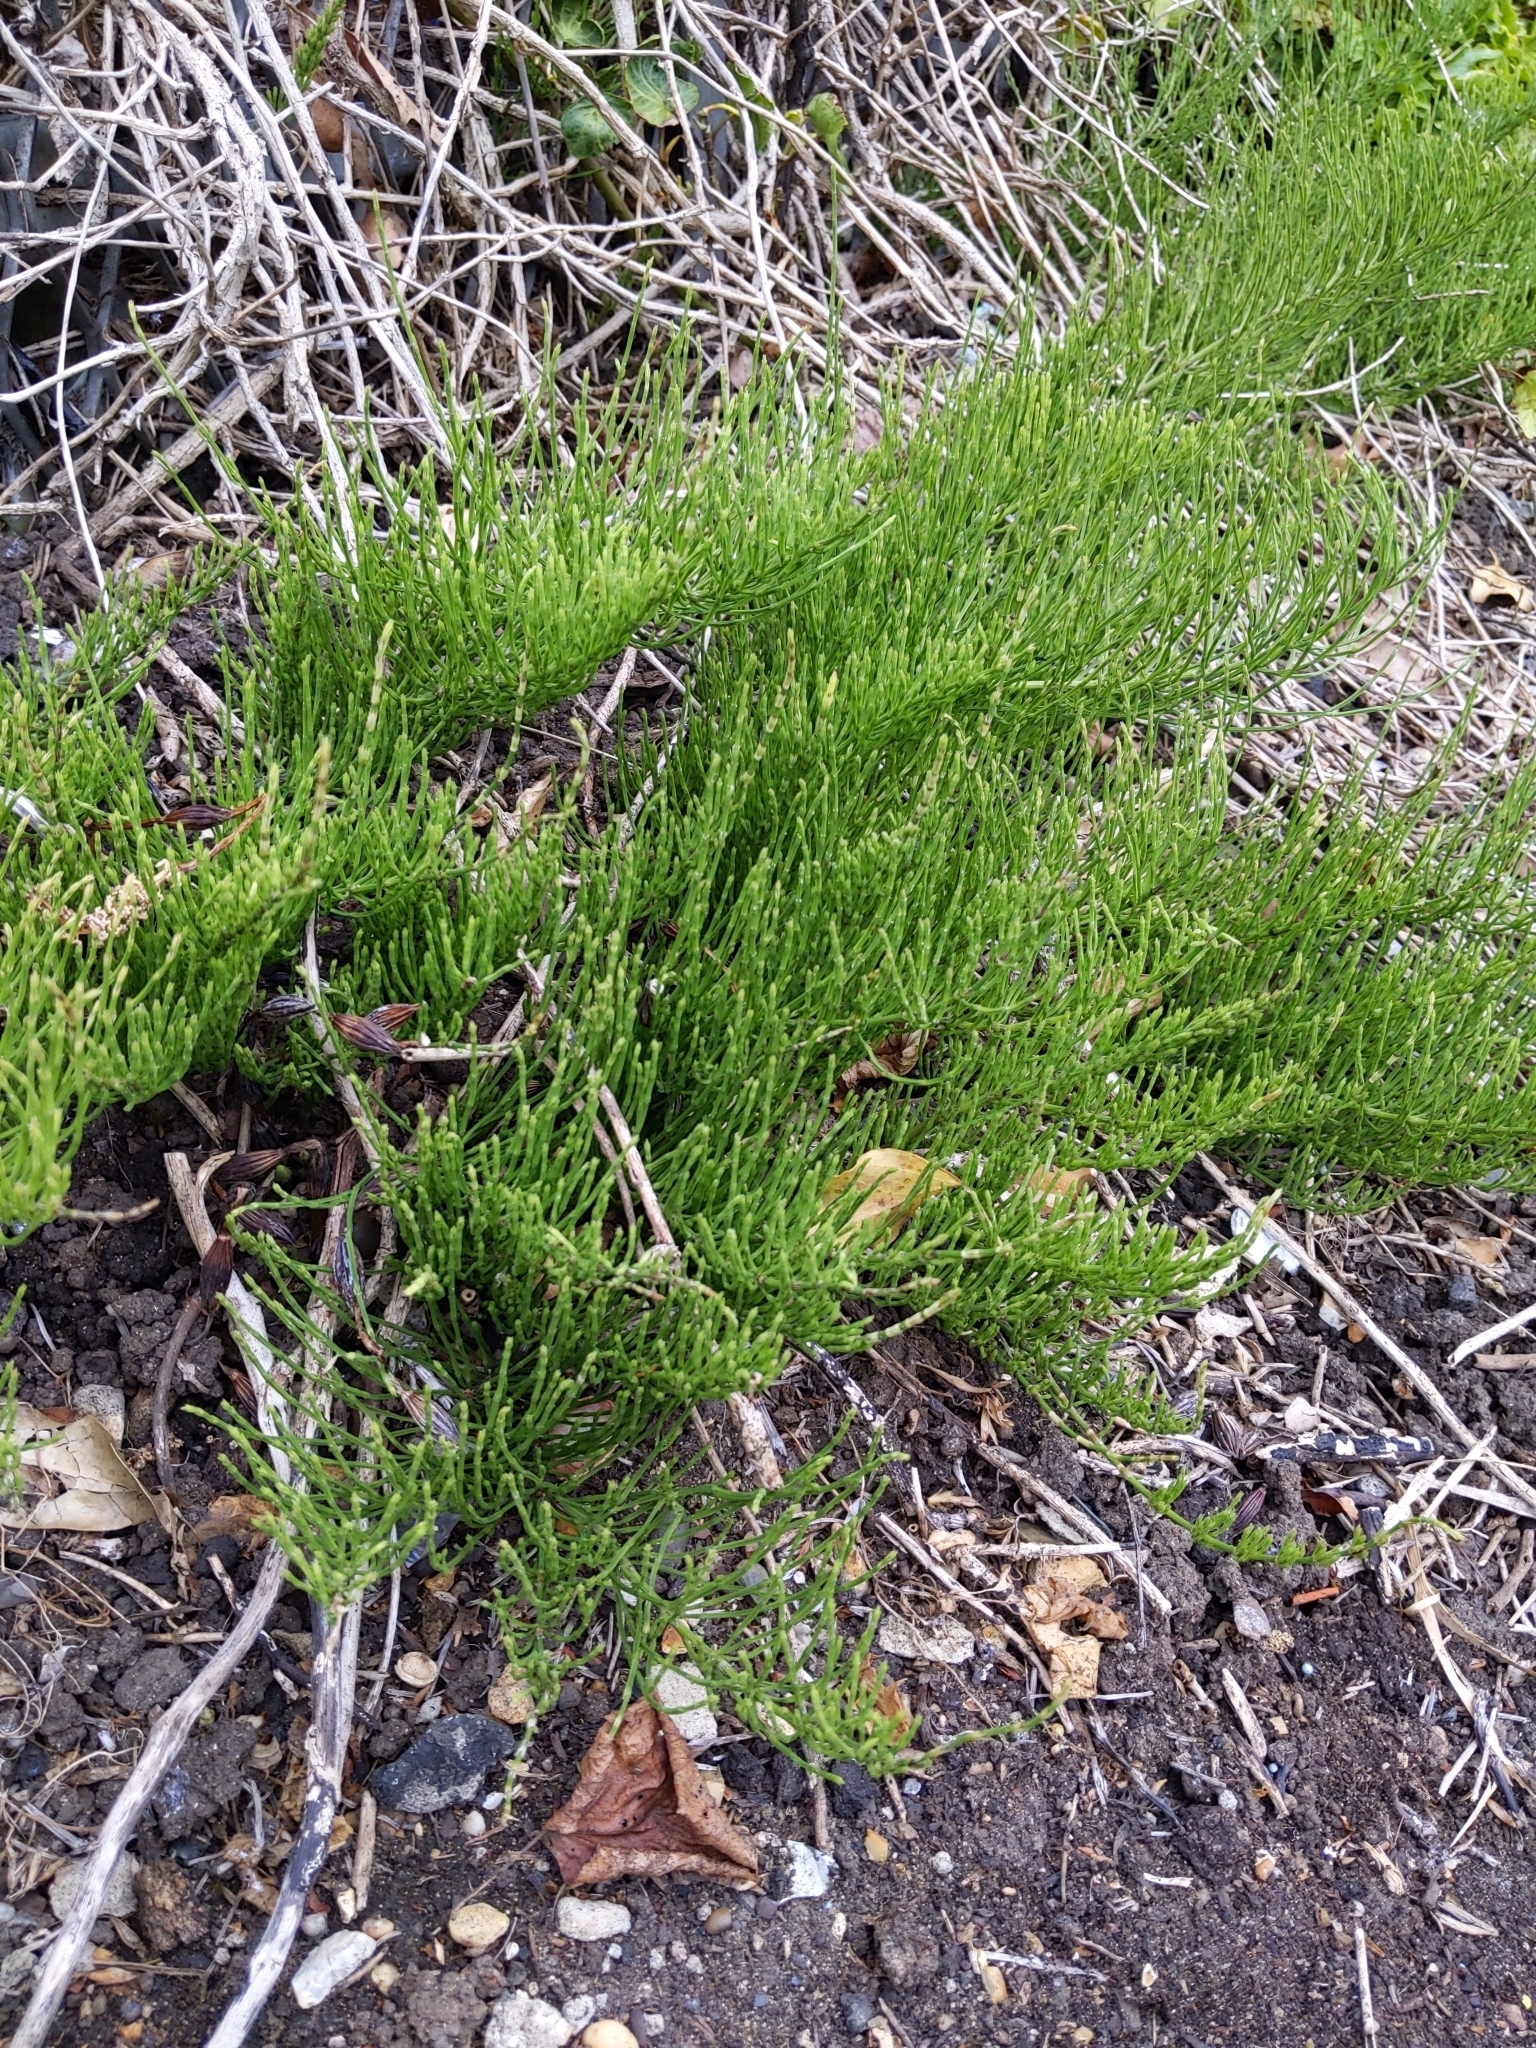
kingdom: Plantae
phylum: Tracheophyta
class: Polypodiopsida
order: Equisetales
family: Equisetaceae
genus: Equisetum
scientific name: Equisetum arvense
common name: Field horsetail
